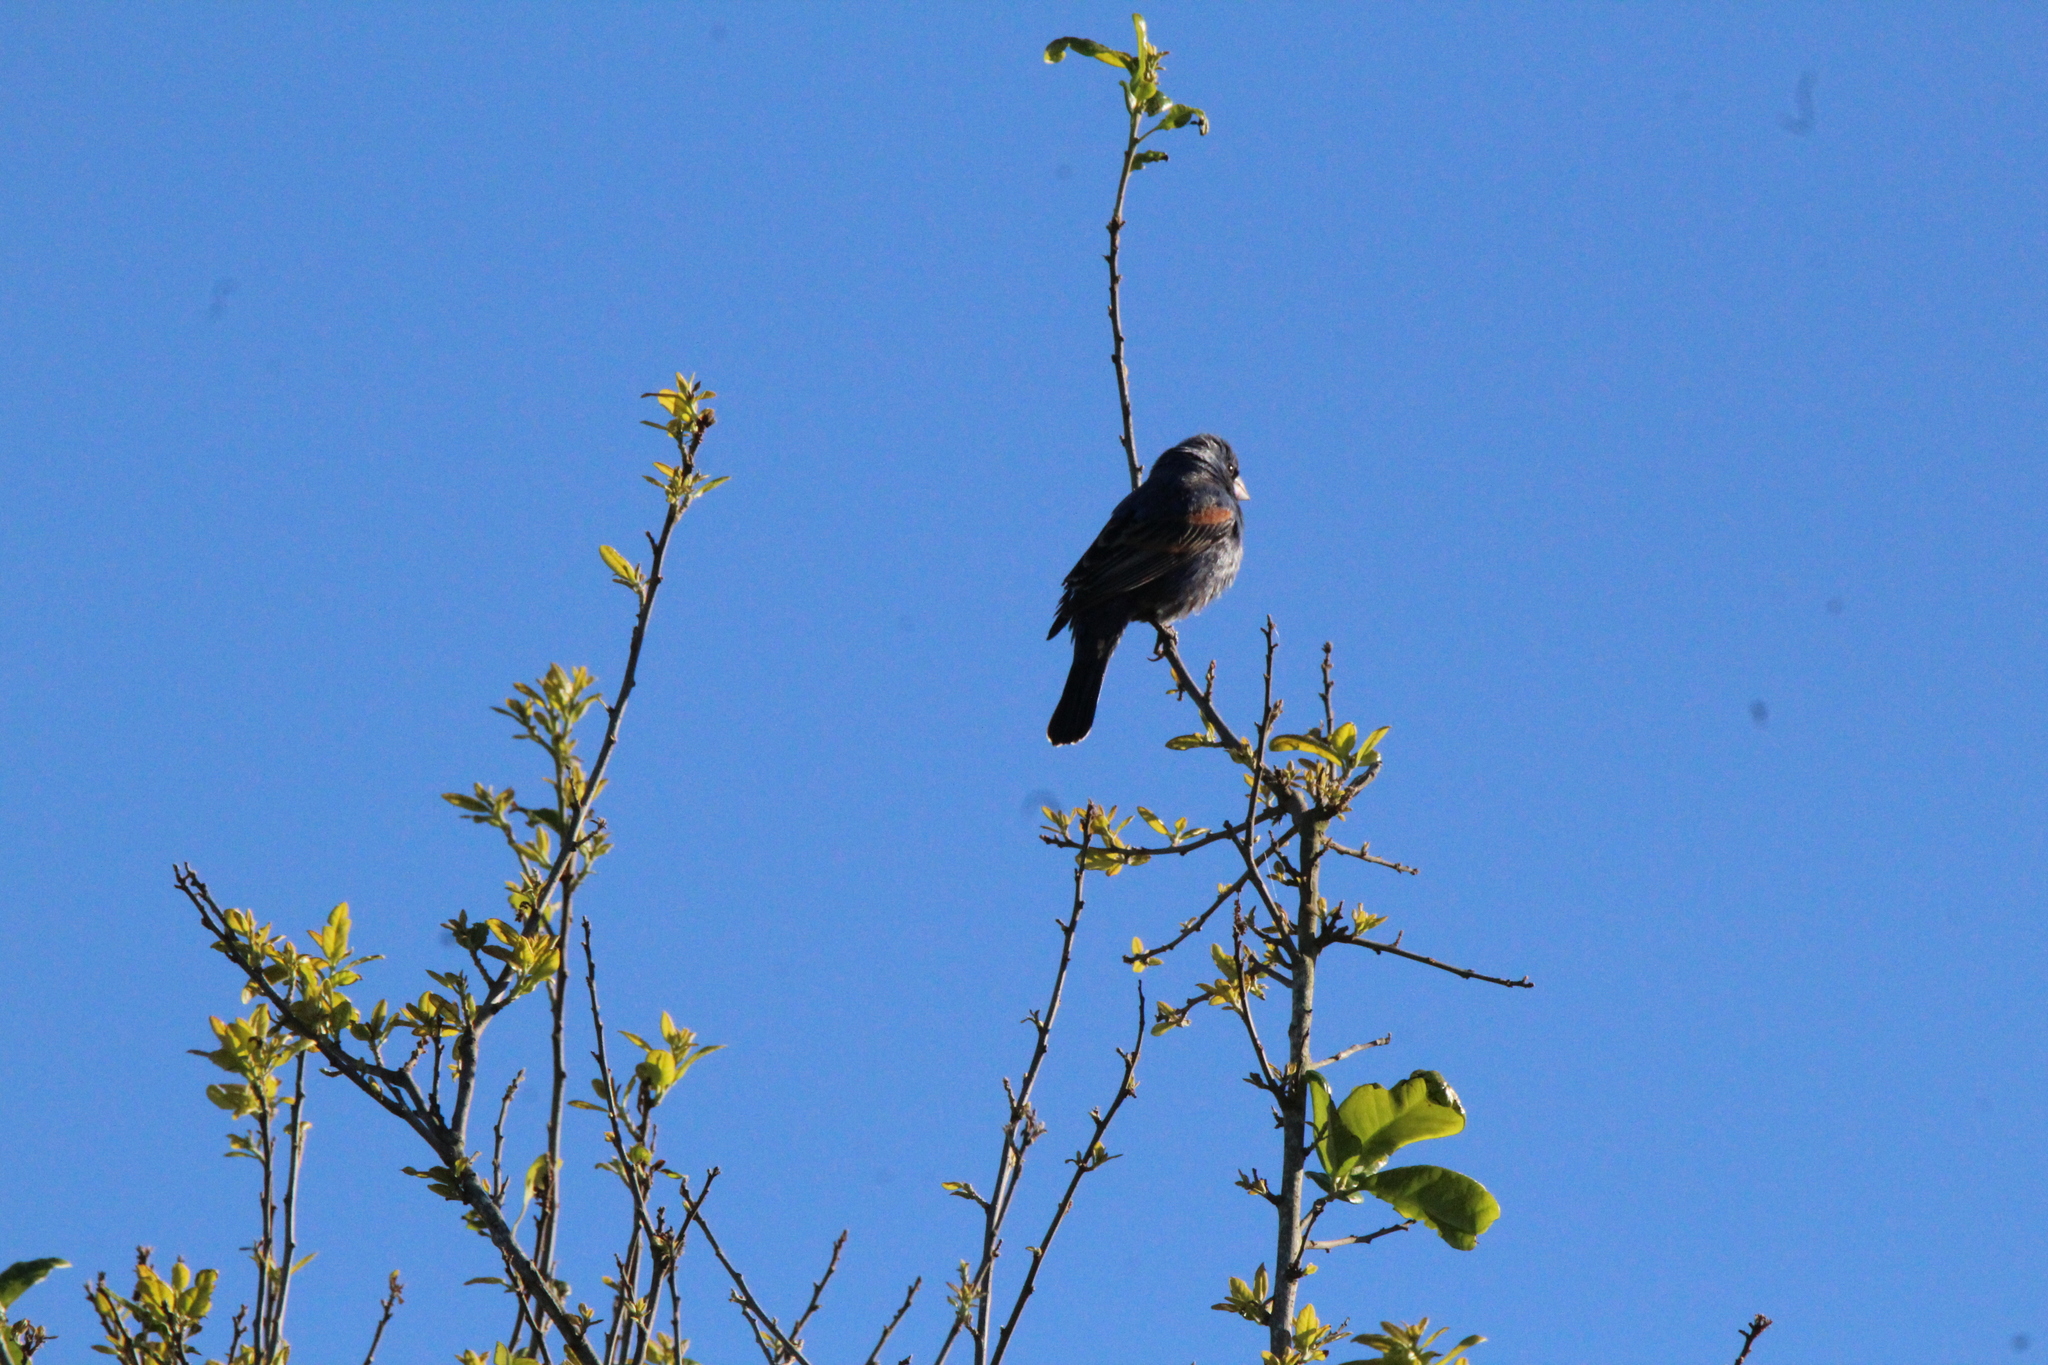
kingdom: Animalia
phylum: Chordata
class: Aves
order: Passeriformes
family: Cardinalidae
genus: Passerina
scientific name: Passerina caerulea
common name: Blue grosbeak
